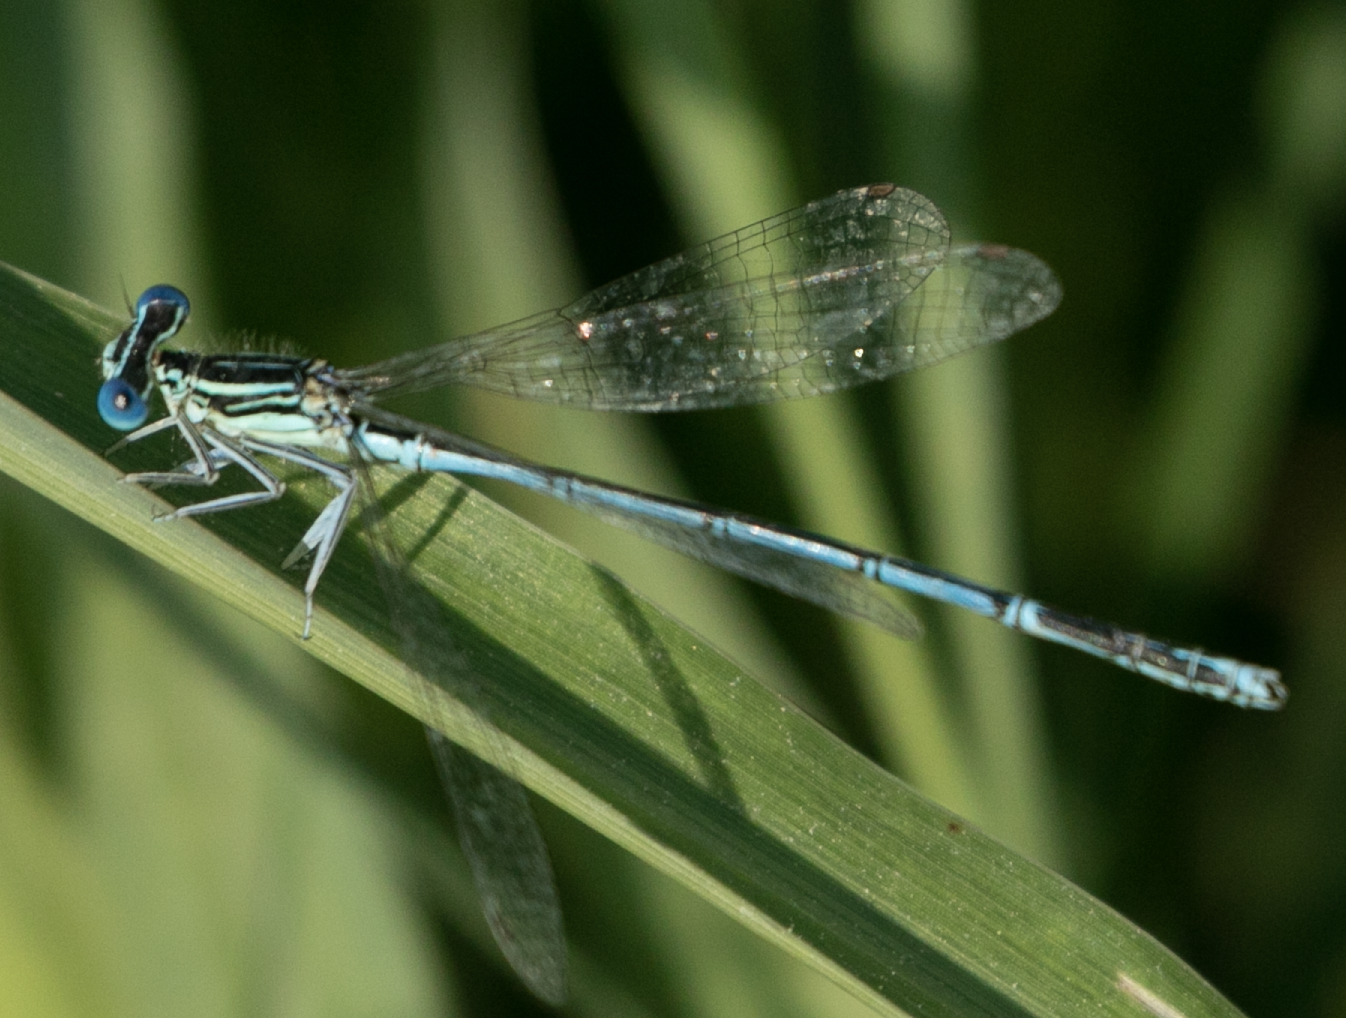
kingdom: Animalia
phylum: Arthropoda
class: Insecta
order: Odonata
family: Platycnemididae
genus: Platycnemis
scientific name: Platycnemis pennipes
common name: White-legged damselfly
